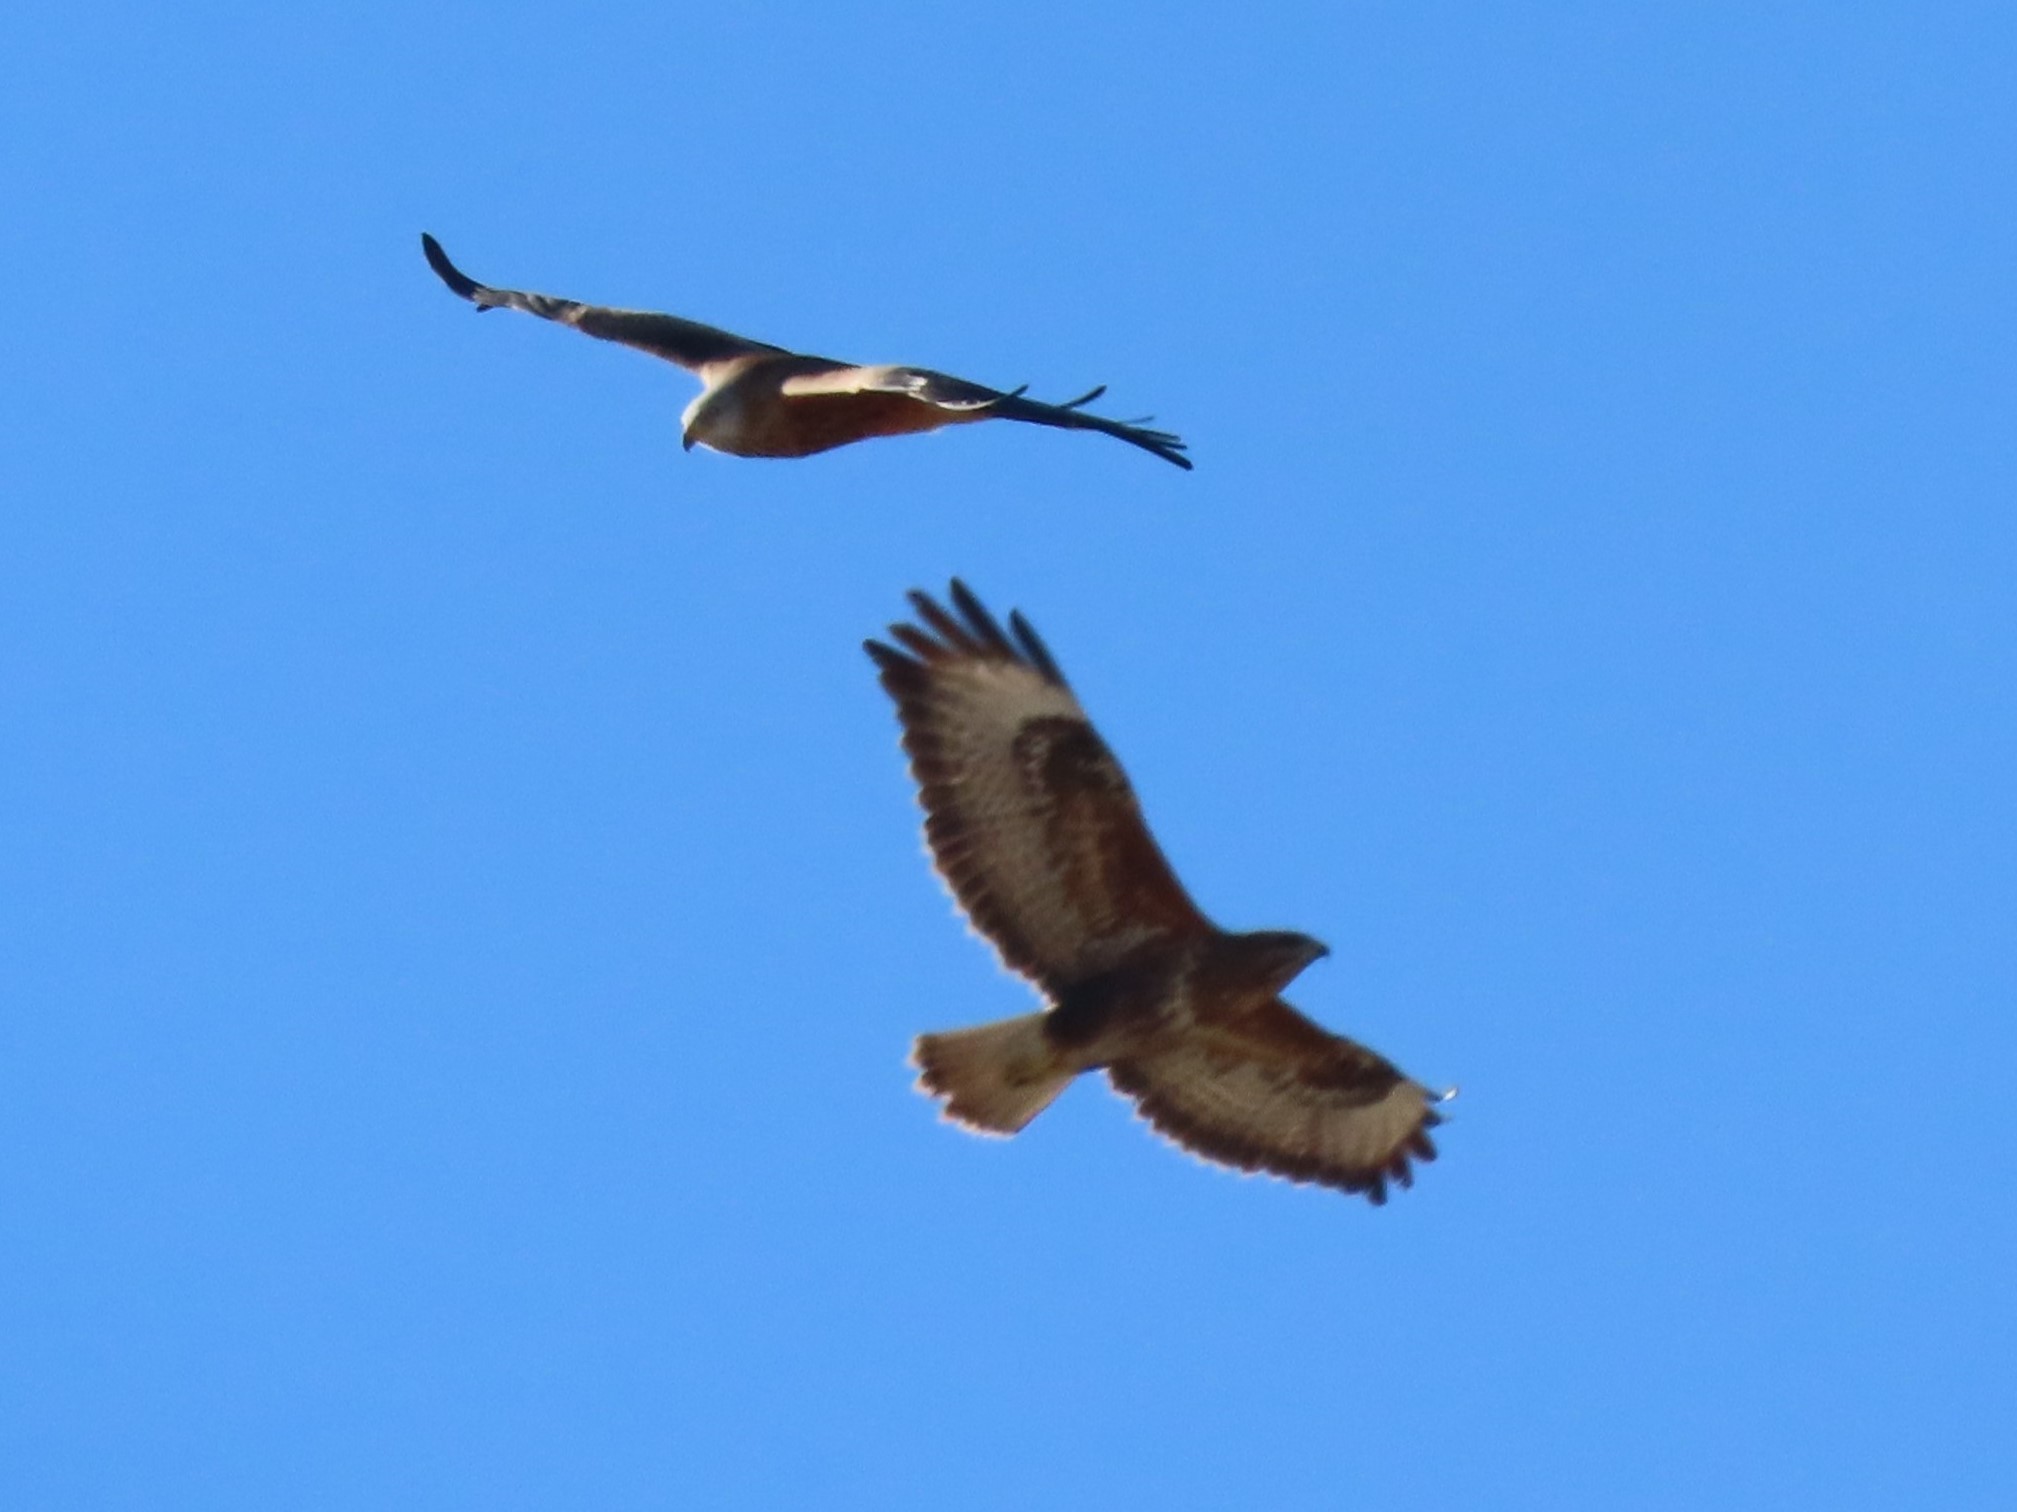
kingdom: Animalia
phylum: Chordata
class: Aves
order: Accipitriformes
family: Accipitridae
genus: Milvus
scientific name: Milvus milvus
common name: Red kite
